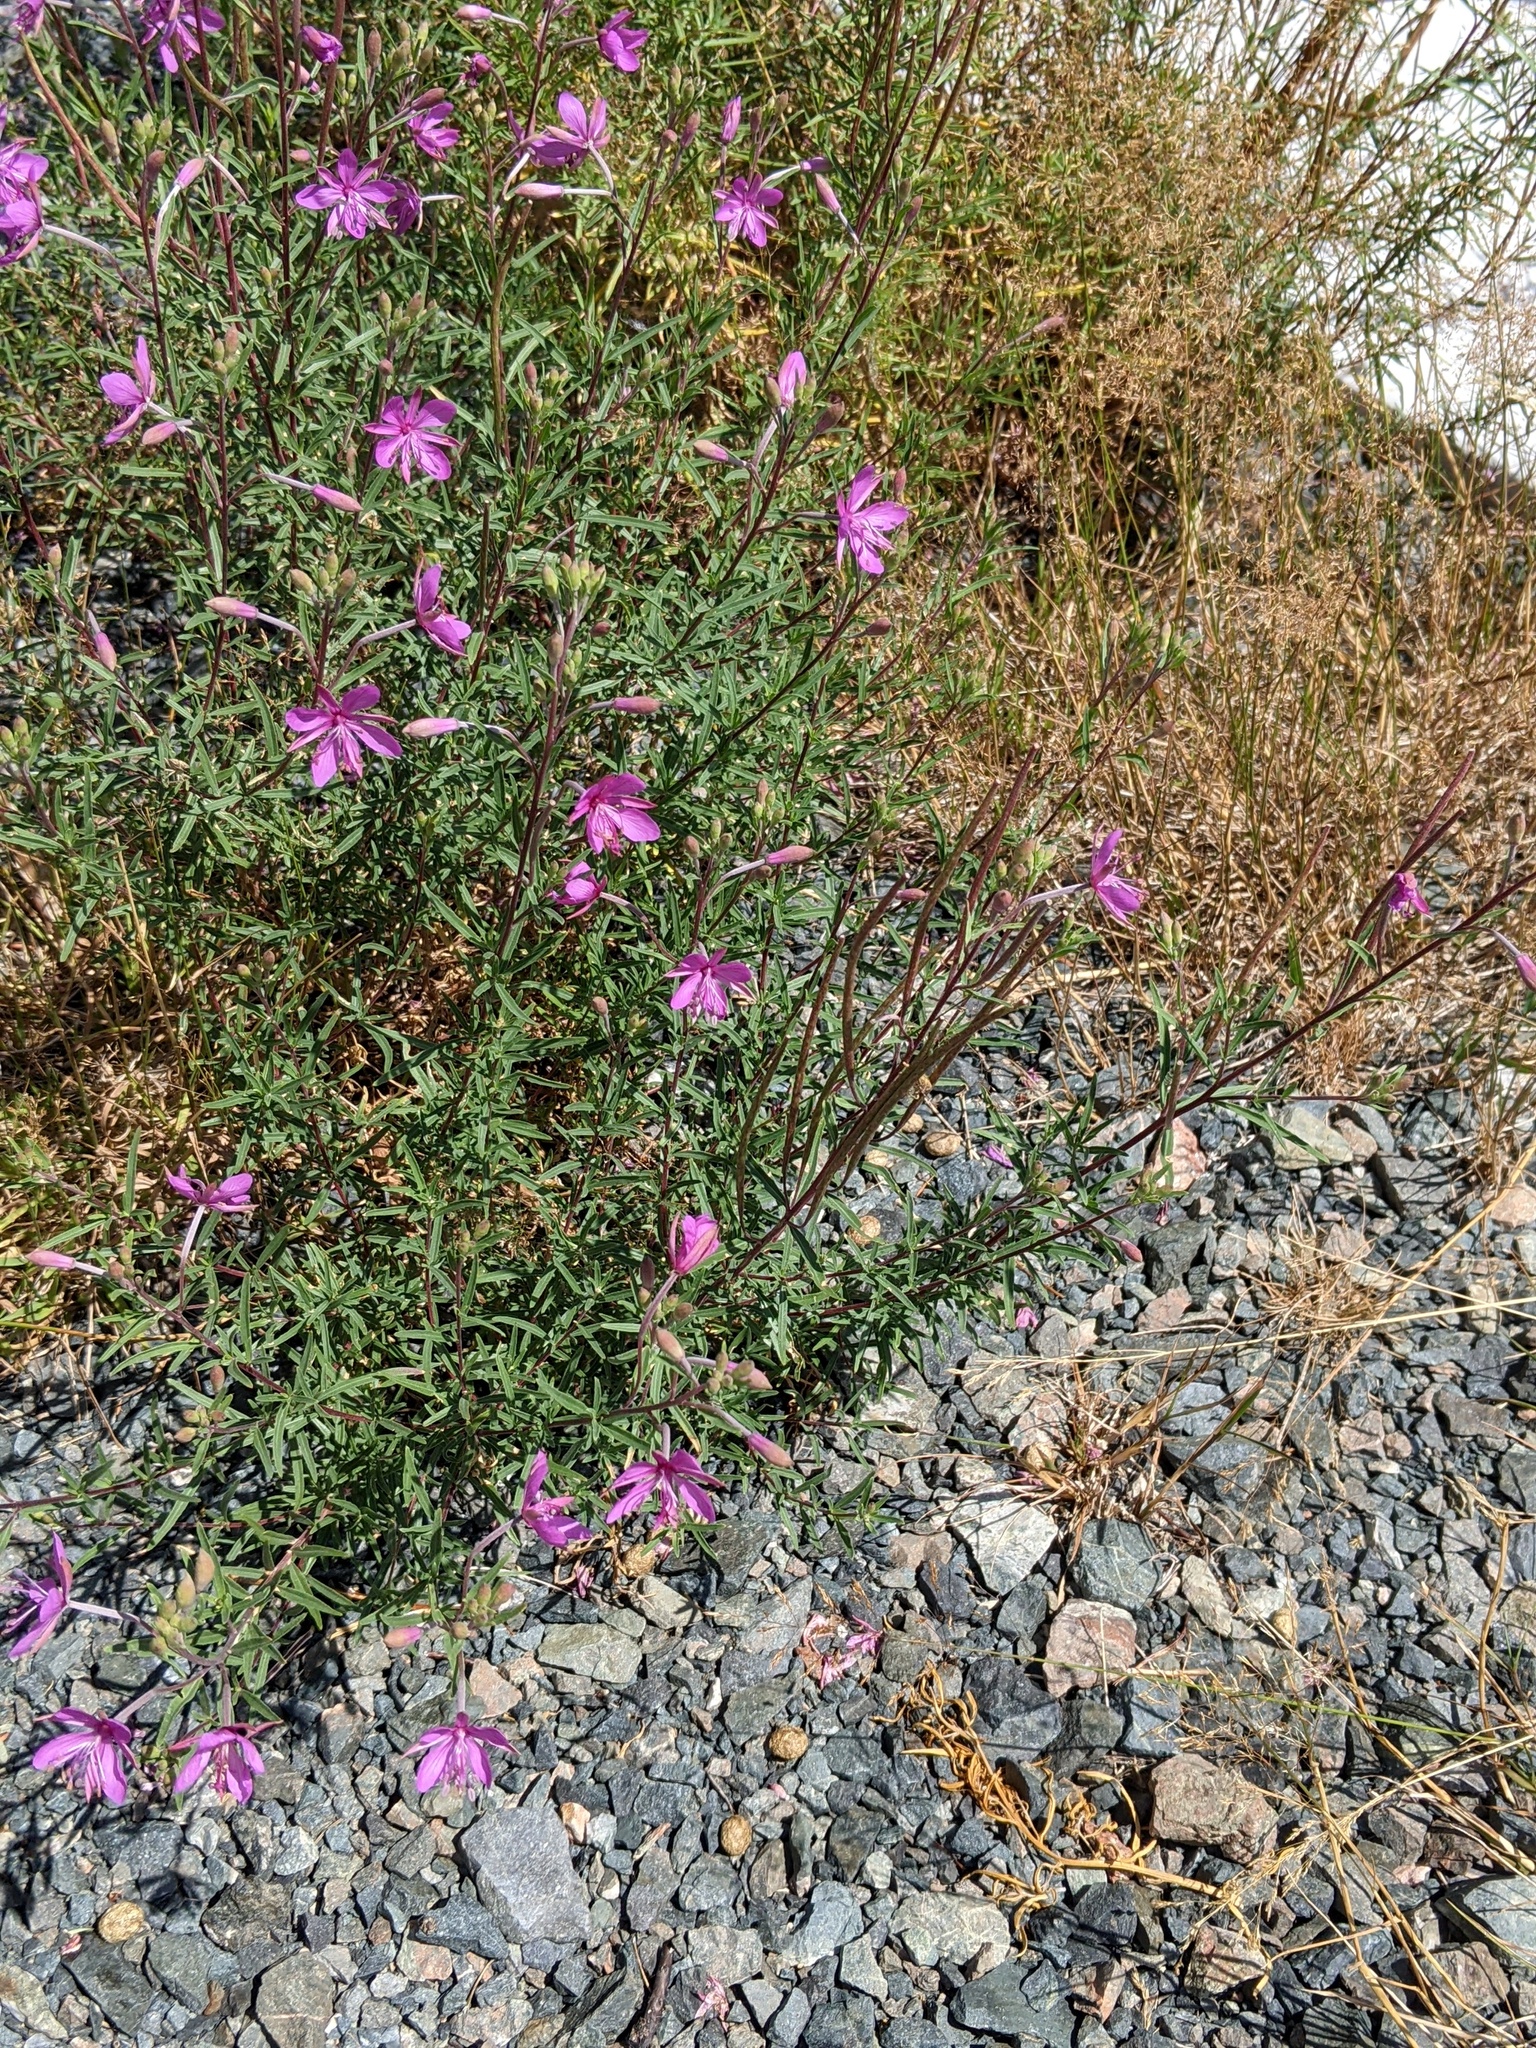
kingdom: Plantae
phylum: Tracheophyta
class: Magnoliopsida
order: Myrtales
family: Onagraceae
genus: Chamaenerion
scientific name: Chamaenerion dodonaei
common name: Rosemary-leaved willowherb
